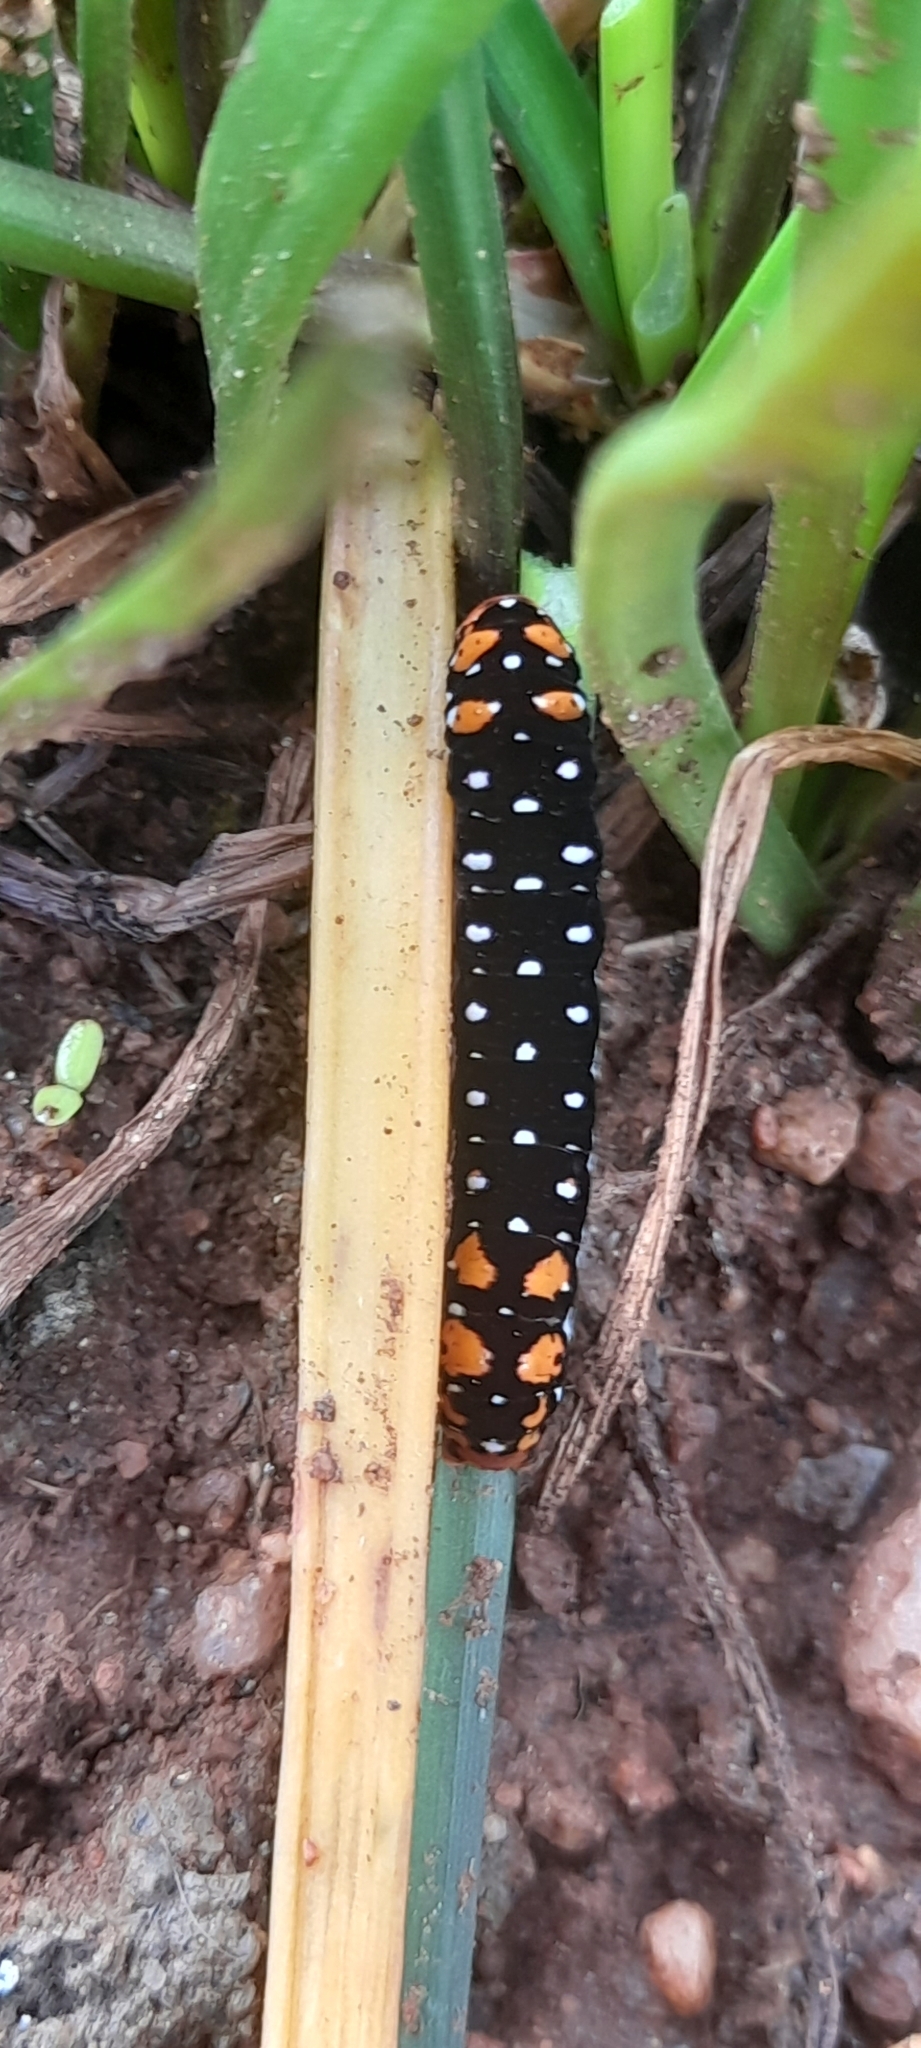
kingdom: Animalia
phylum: Arthropoda
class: Insecta
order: Lepidoptera
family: Noctuidae
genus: Polytela
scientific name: Polytela gloriosae
